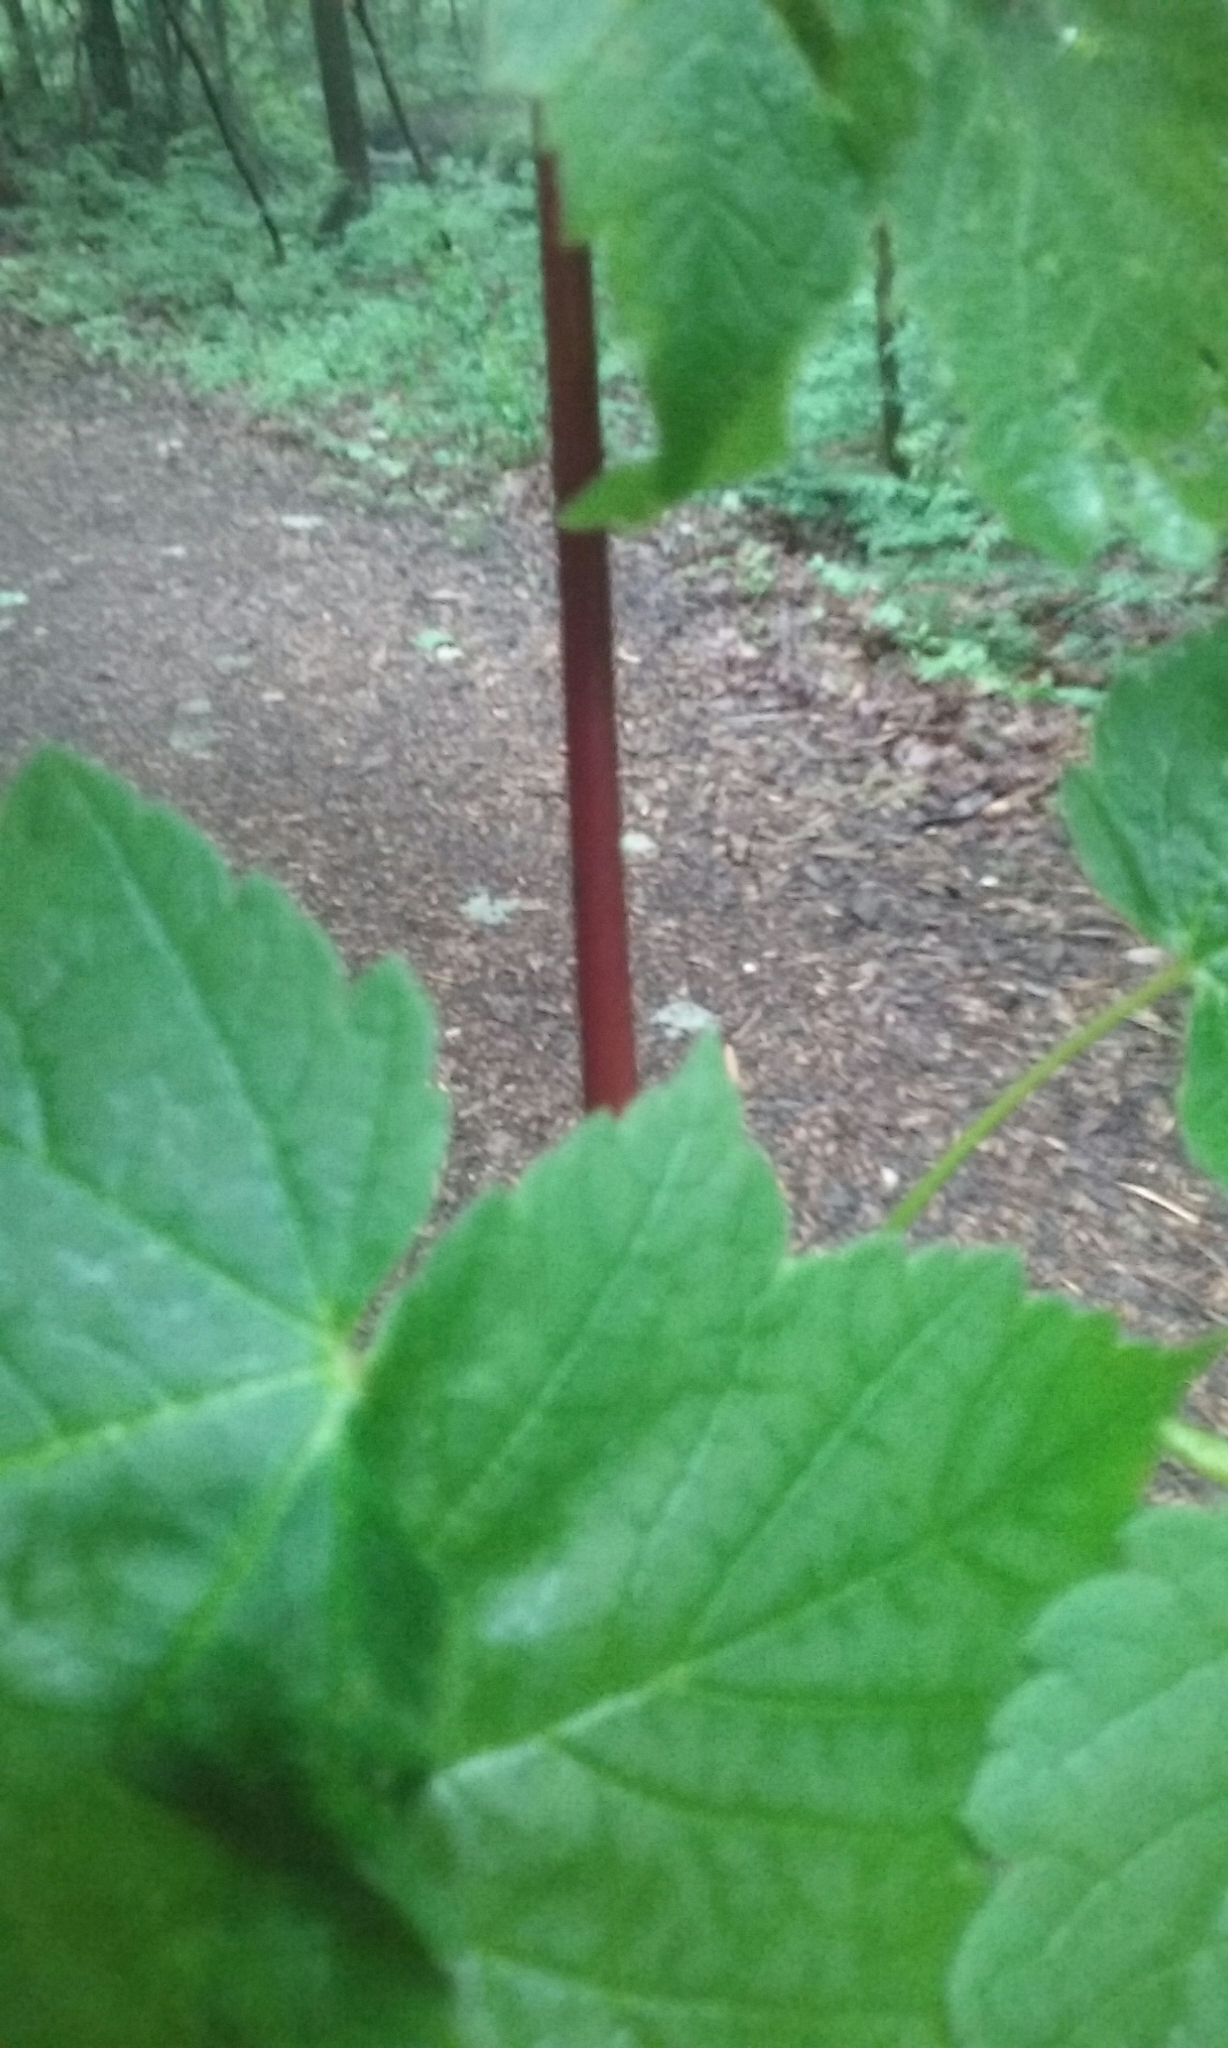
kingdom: Plantae
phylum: Tracheophyta
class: Magnoliopsida
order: Sapindales
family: Sapindaceae
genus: Acer
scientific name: Acer spicatum
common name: Mountain maple
